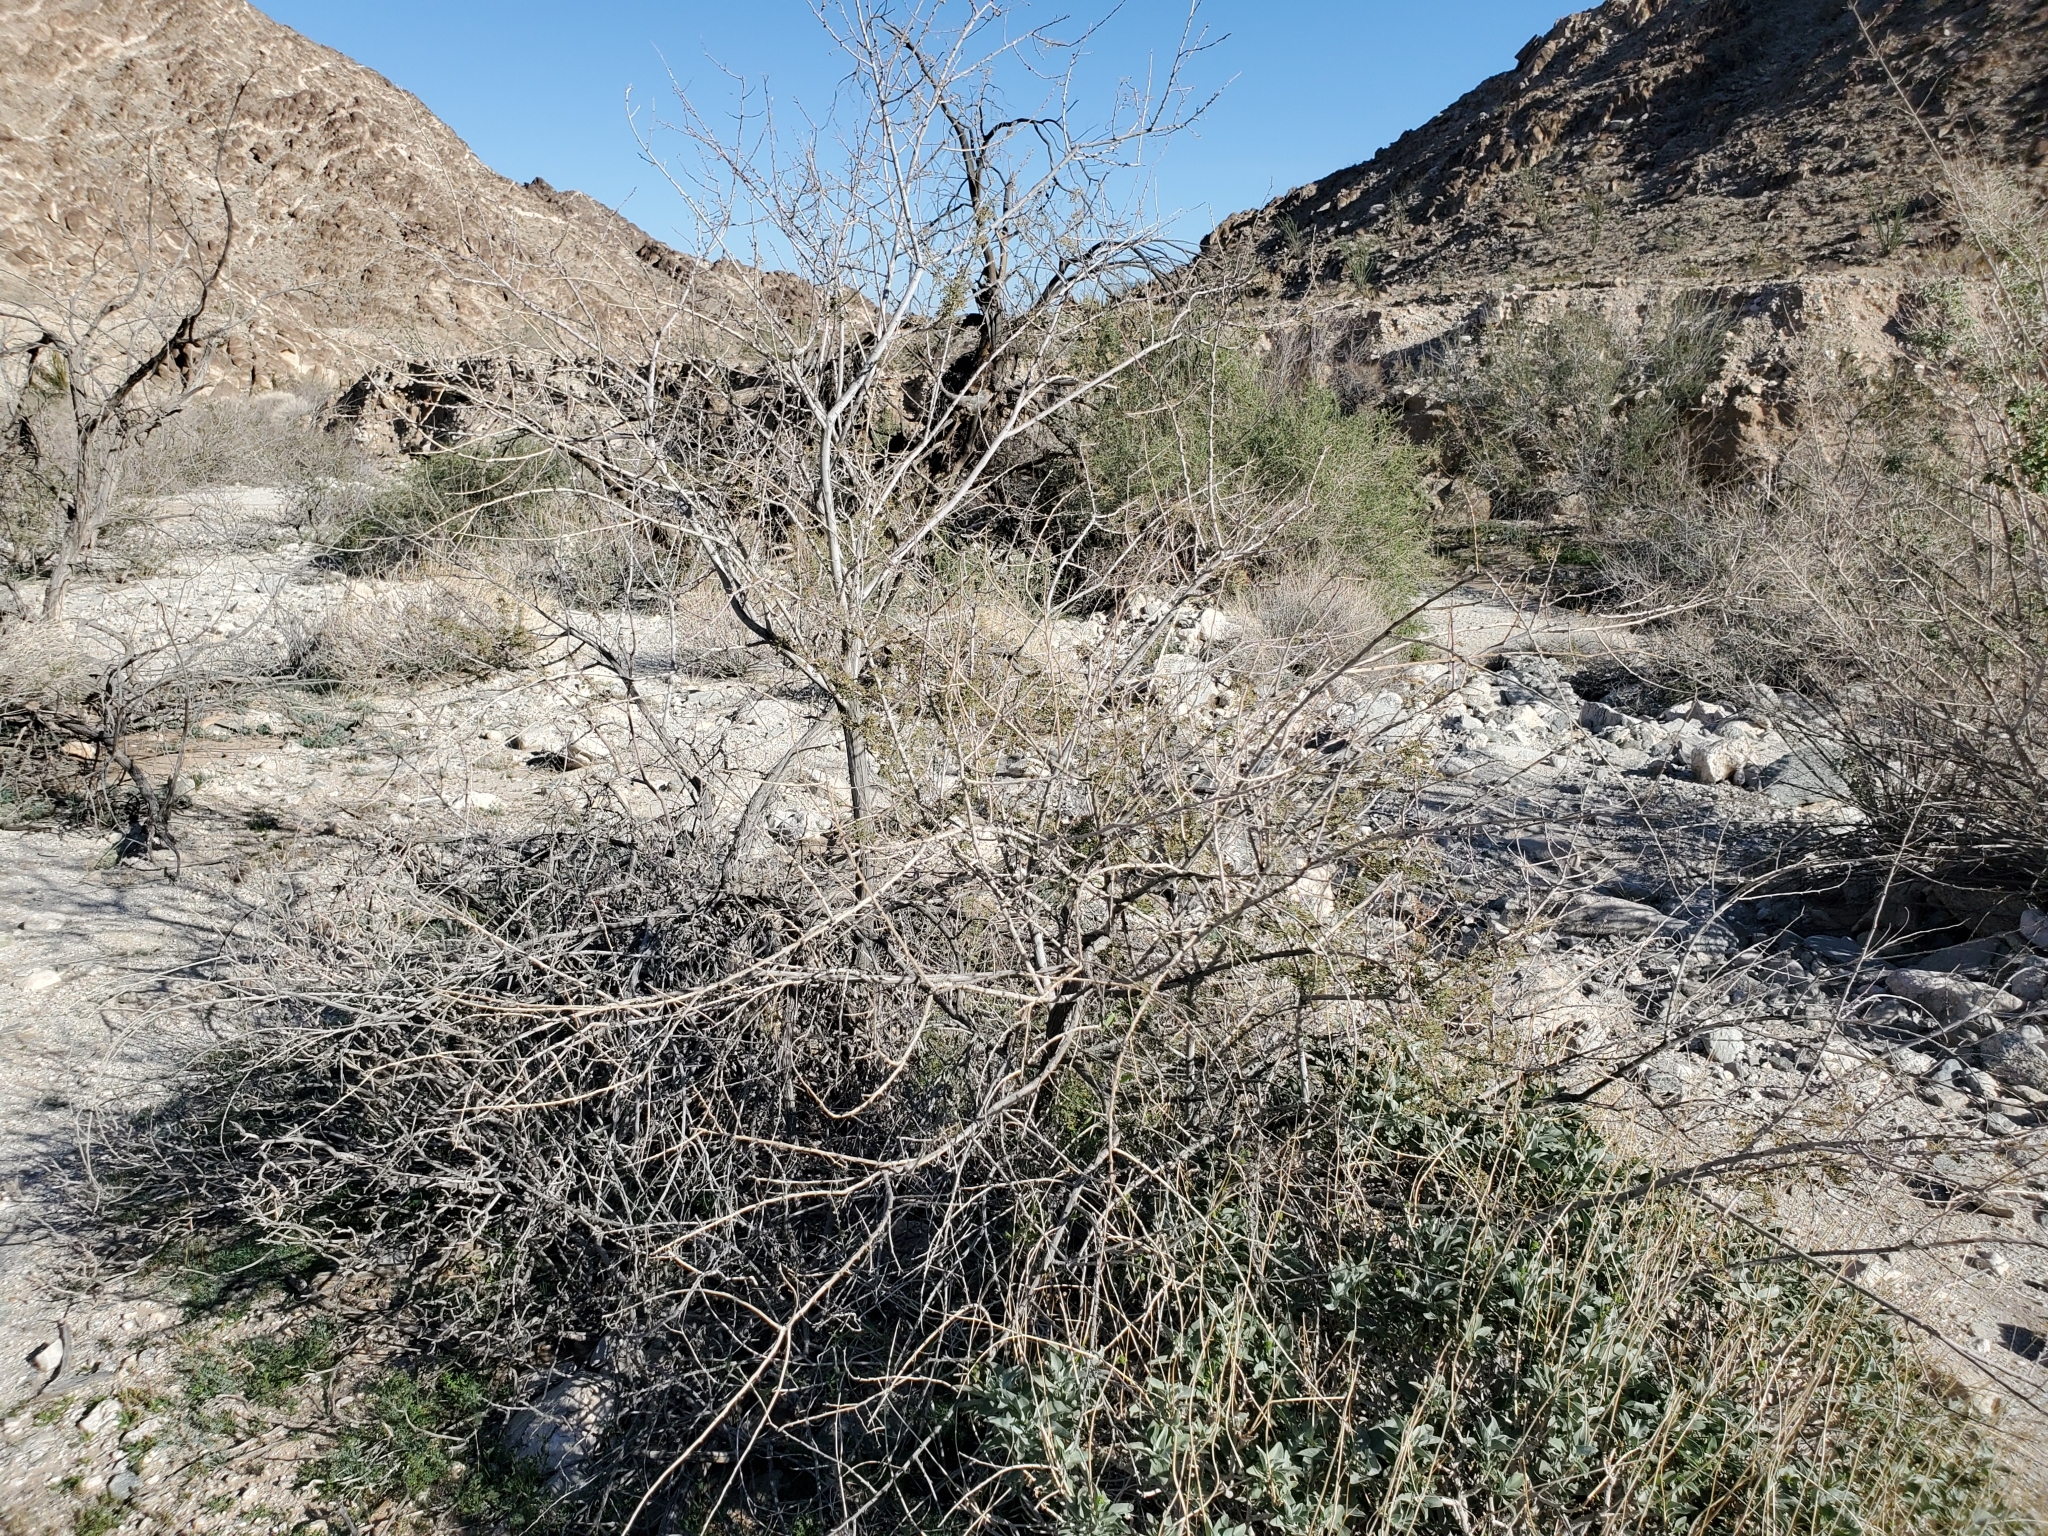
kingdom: Plantae
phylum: Tracheophyta
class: Magnoliopsida
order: Fabales
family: Fabaceae
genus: Senegalia
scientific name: Senegalia greggii
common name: Texas-mimosa
